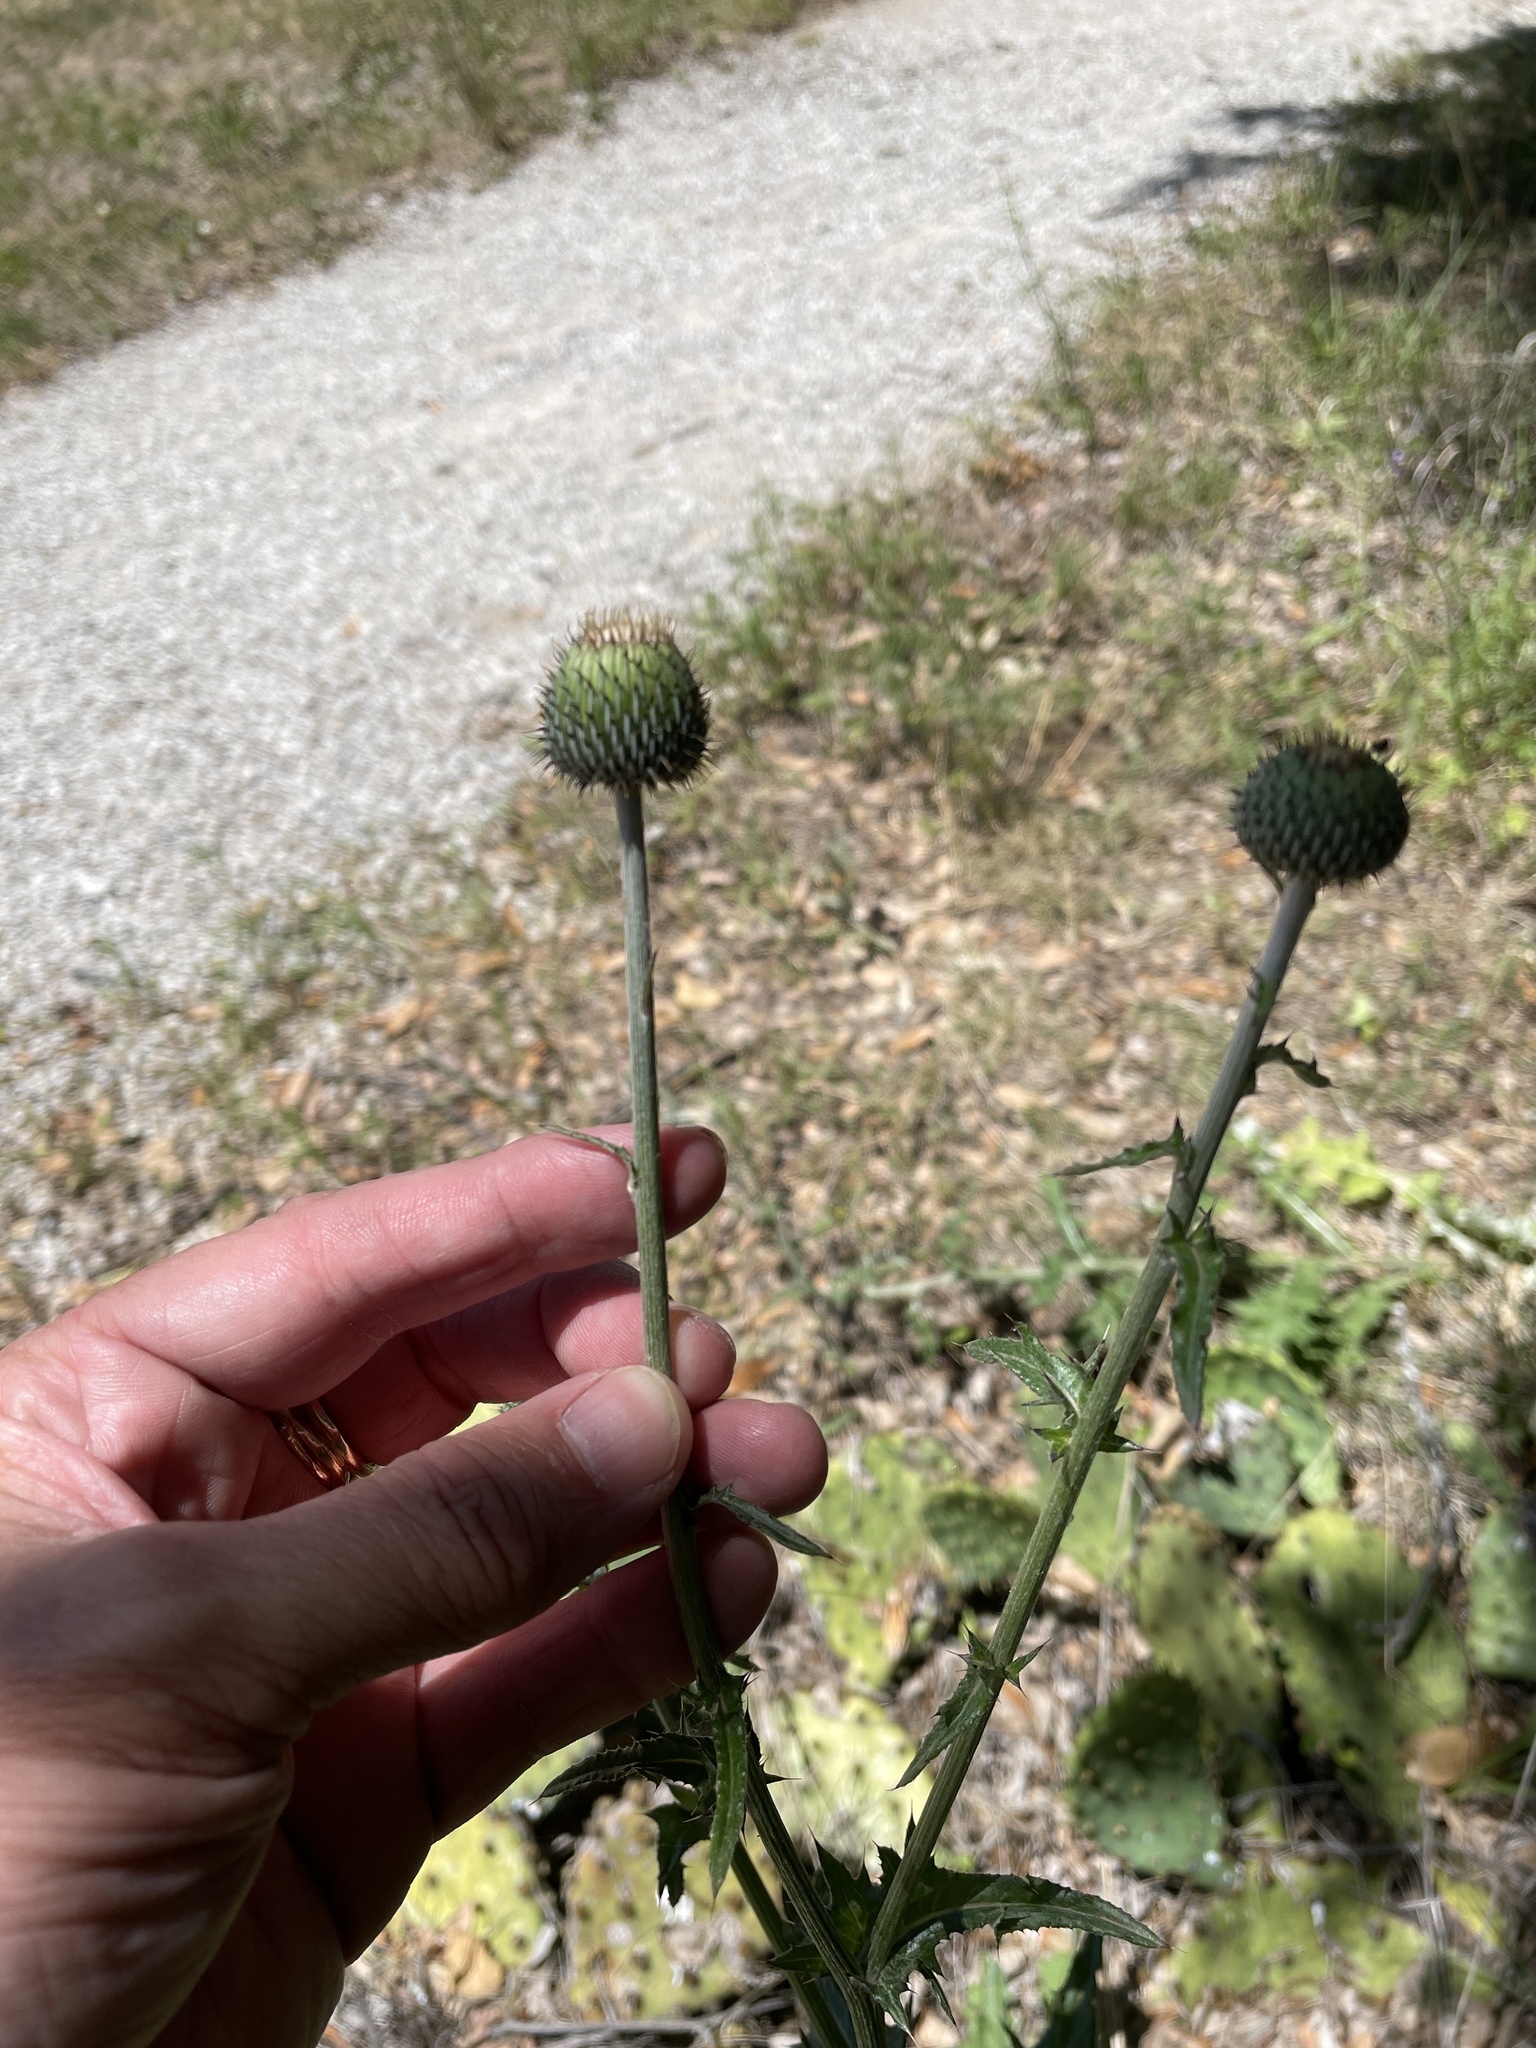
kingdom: Plantae
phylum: Tracheophyta
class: Magnoliopsida
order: Asterales
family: Asteraceae
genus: Cirsium
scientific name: Cirsium texanum
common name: Texas purple thistle
